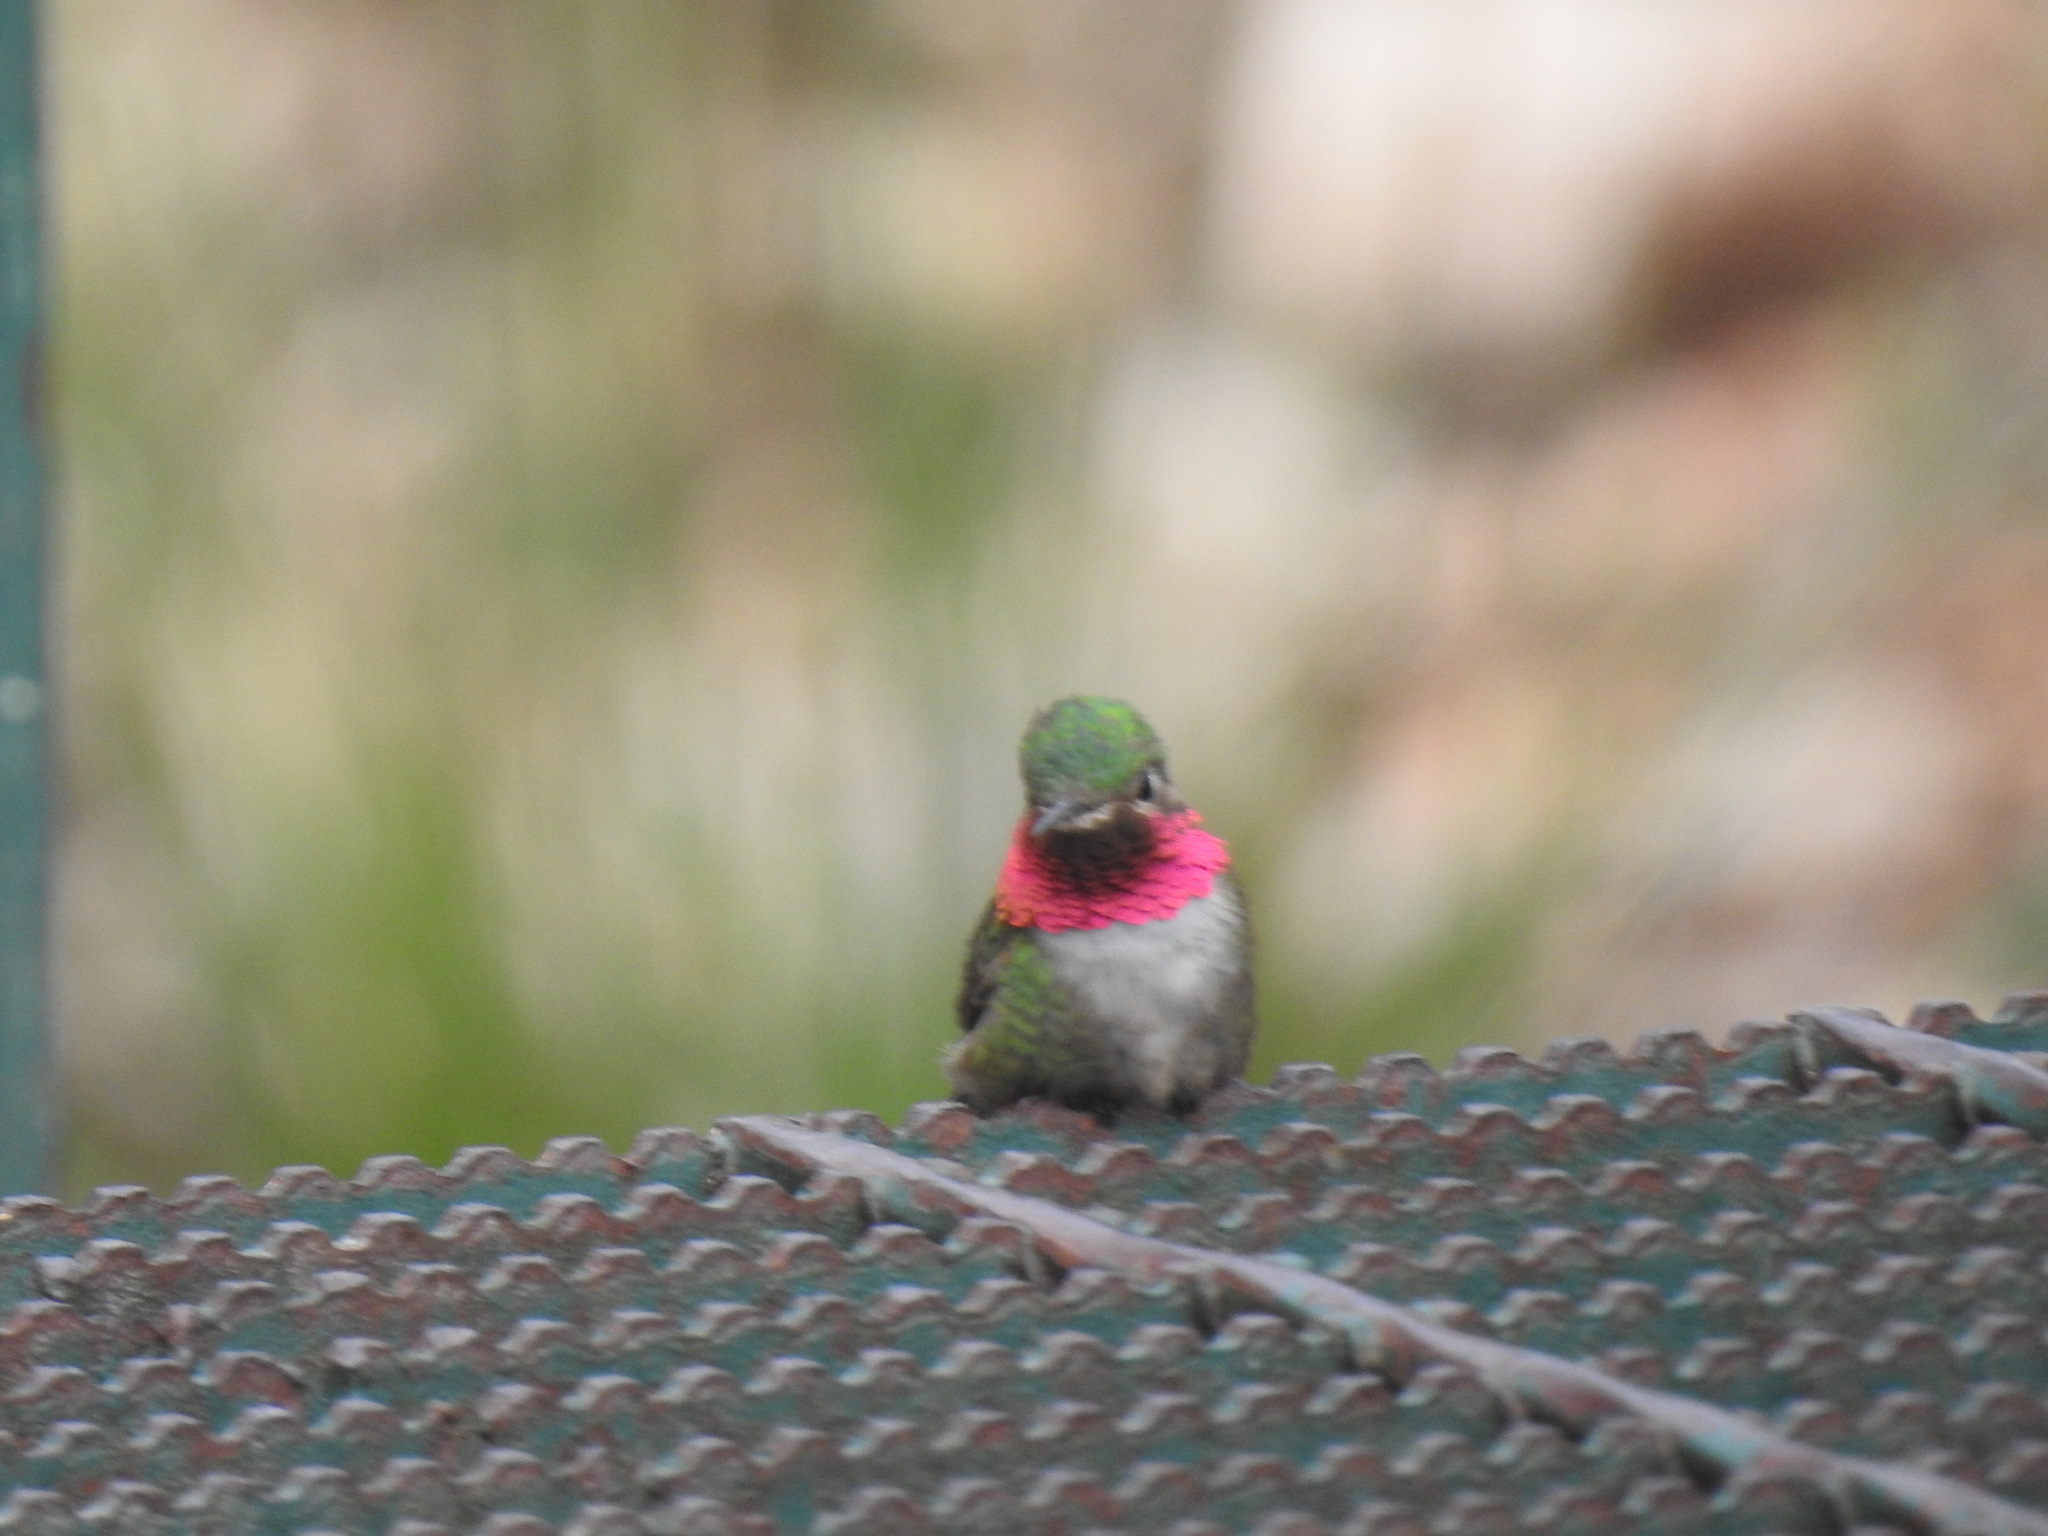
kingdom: Animalia
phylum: Chordata
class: Aves
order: Apodiformes
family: Trochilidae
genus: Selasphorus
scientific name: Selasphorus platycercus
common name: Broad-tailed hummingbird
